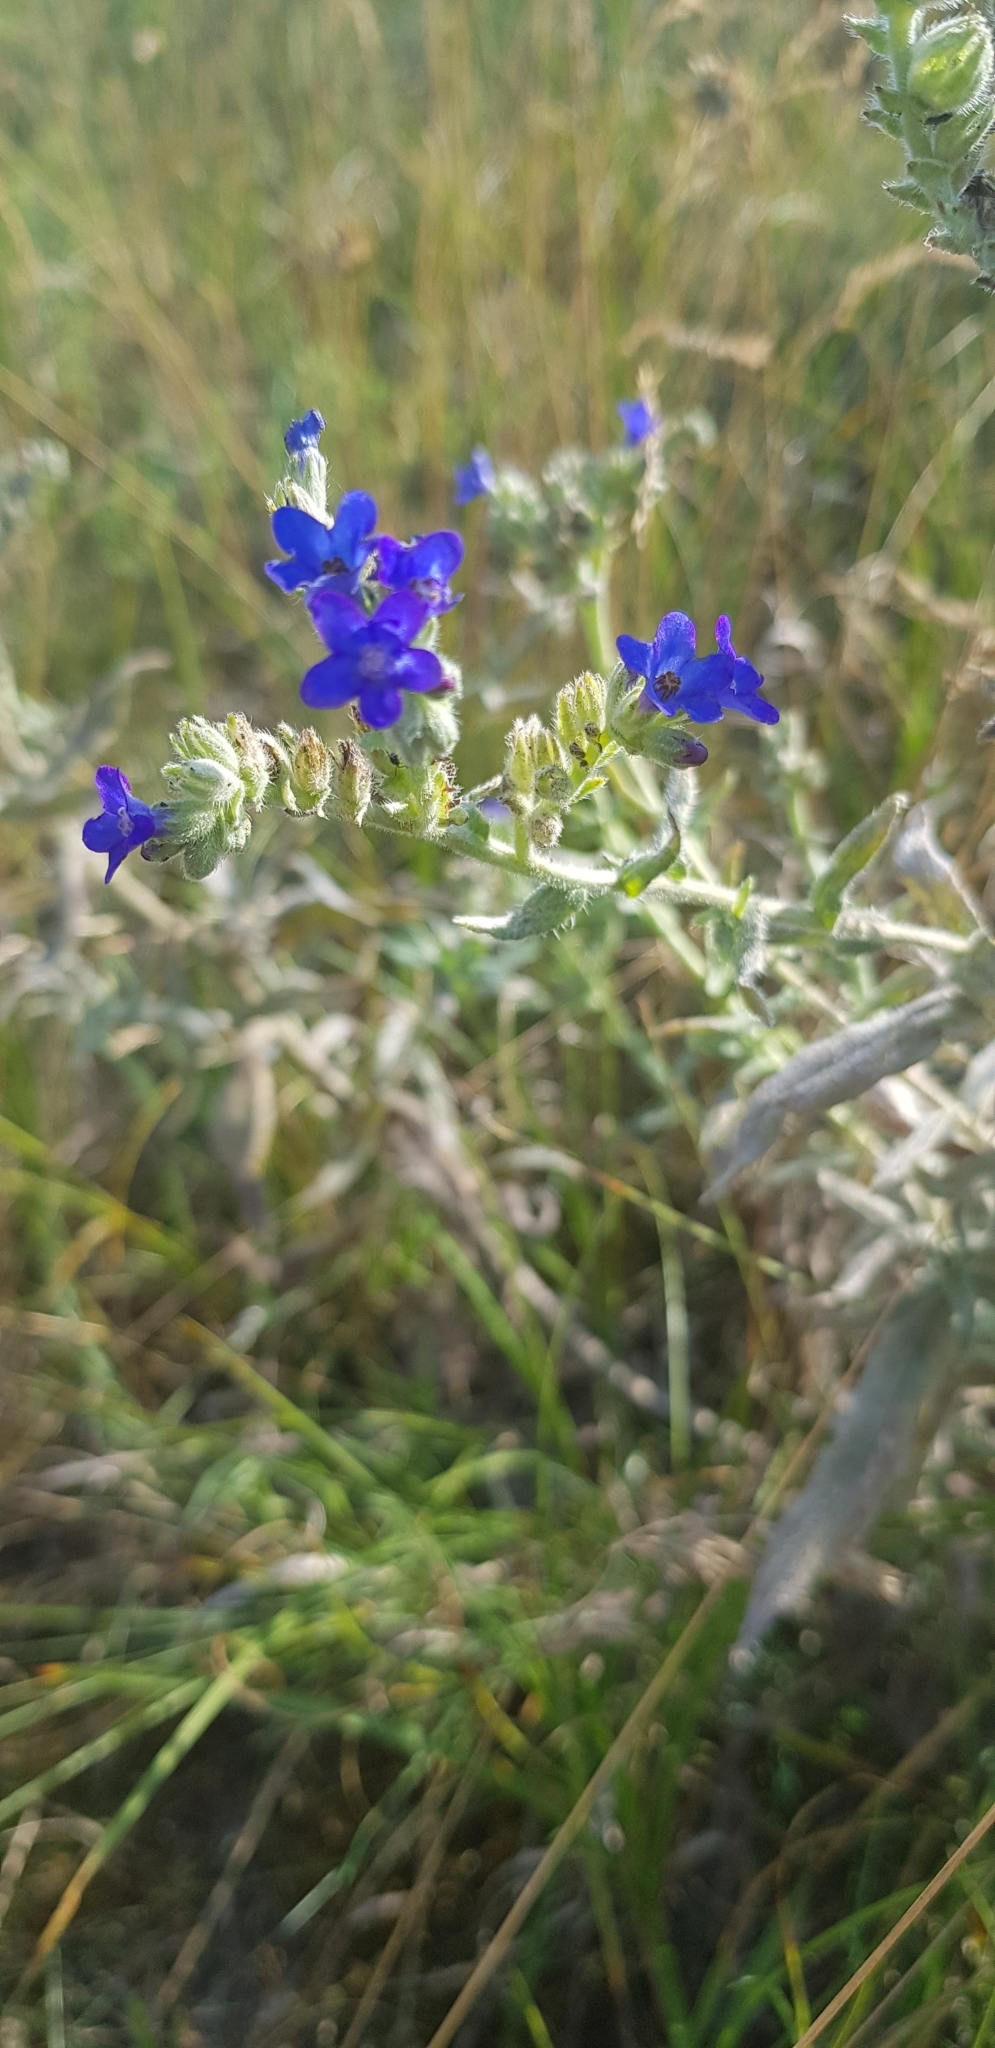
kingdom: Plantae
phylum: Tracheophyta
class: Magnoliopsida
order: Boraginales
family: Boraginaceae
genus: Anchusa
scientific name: Anchusa officinalis
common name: Alkanet
